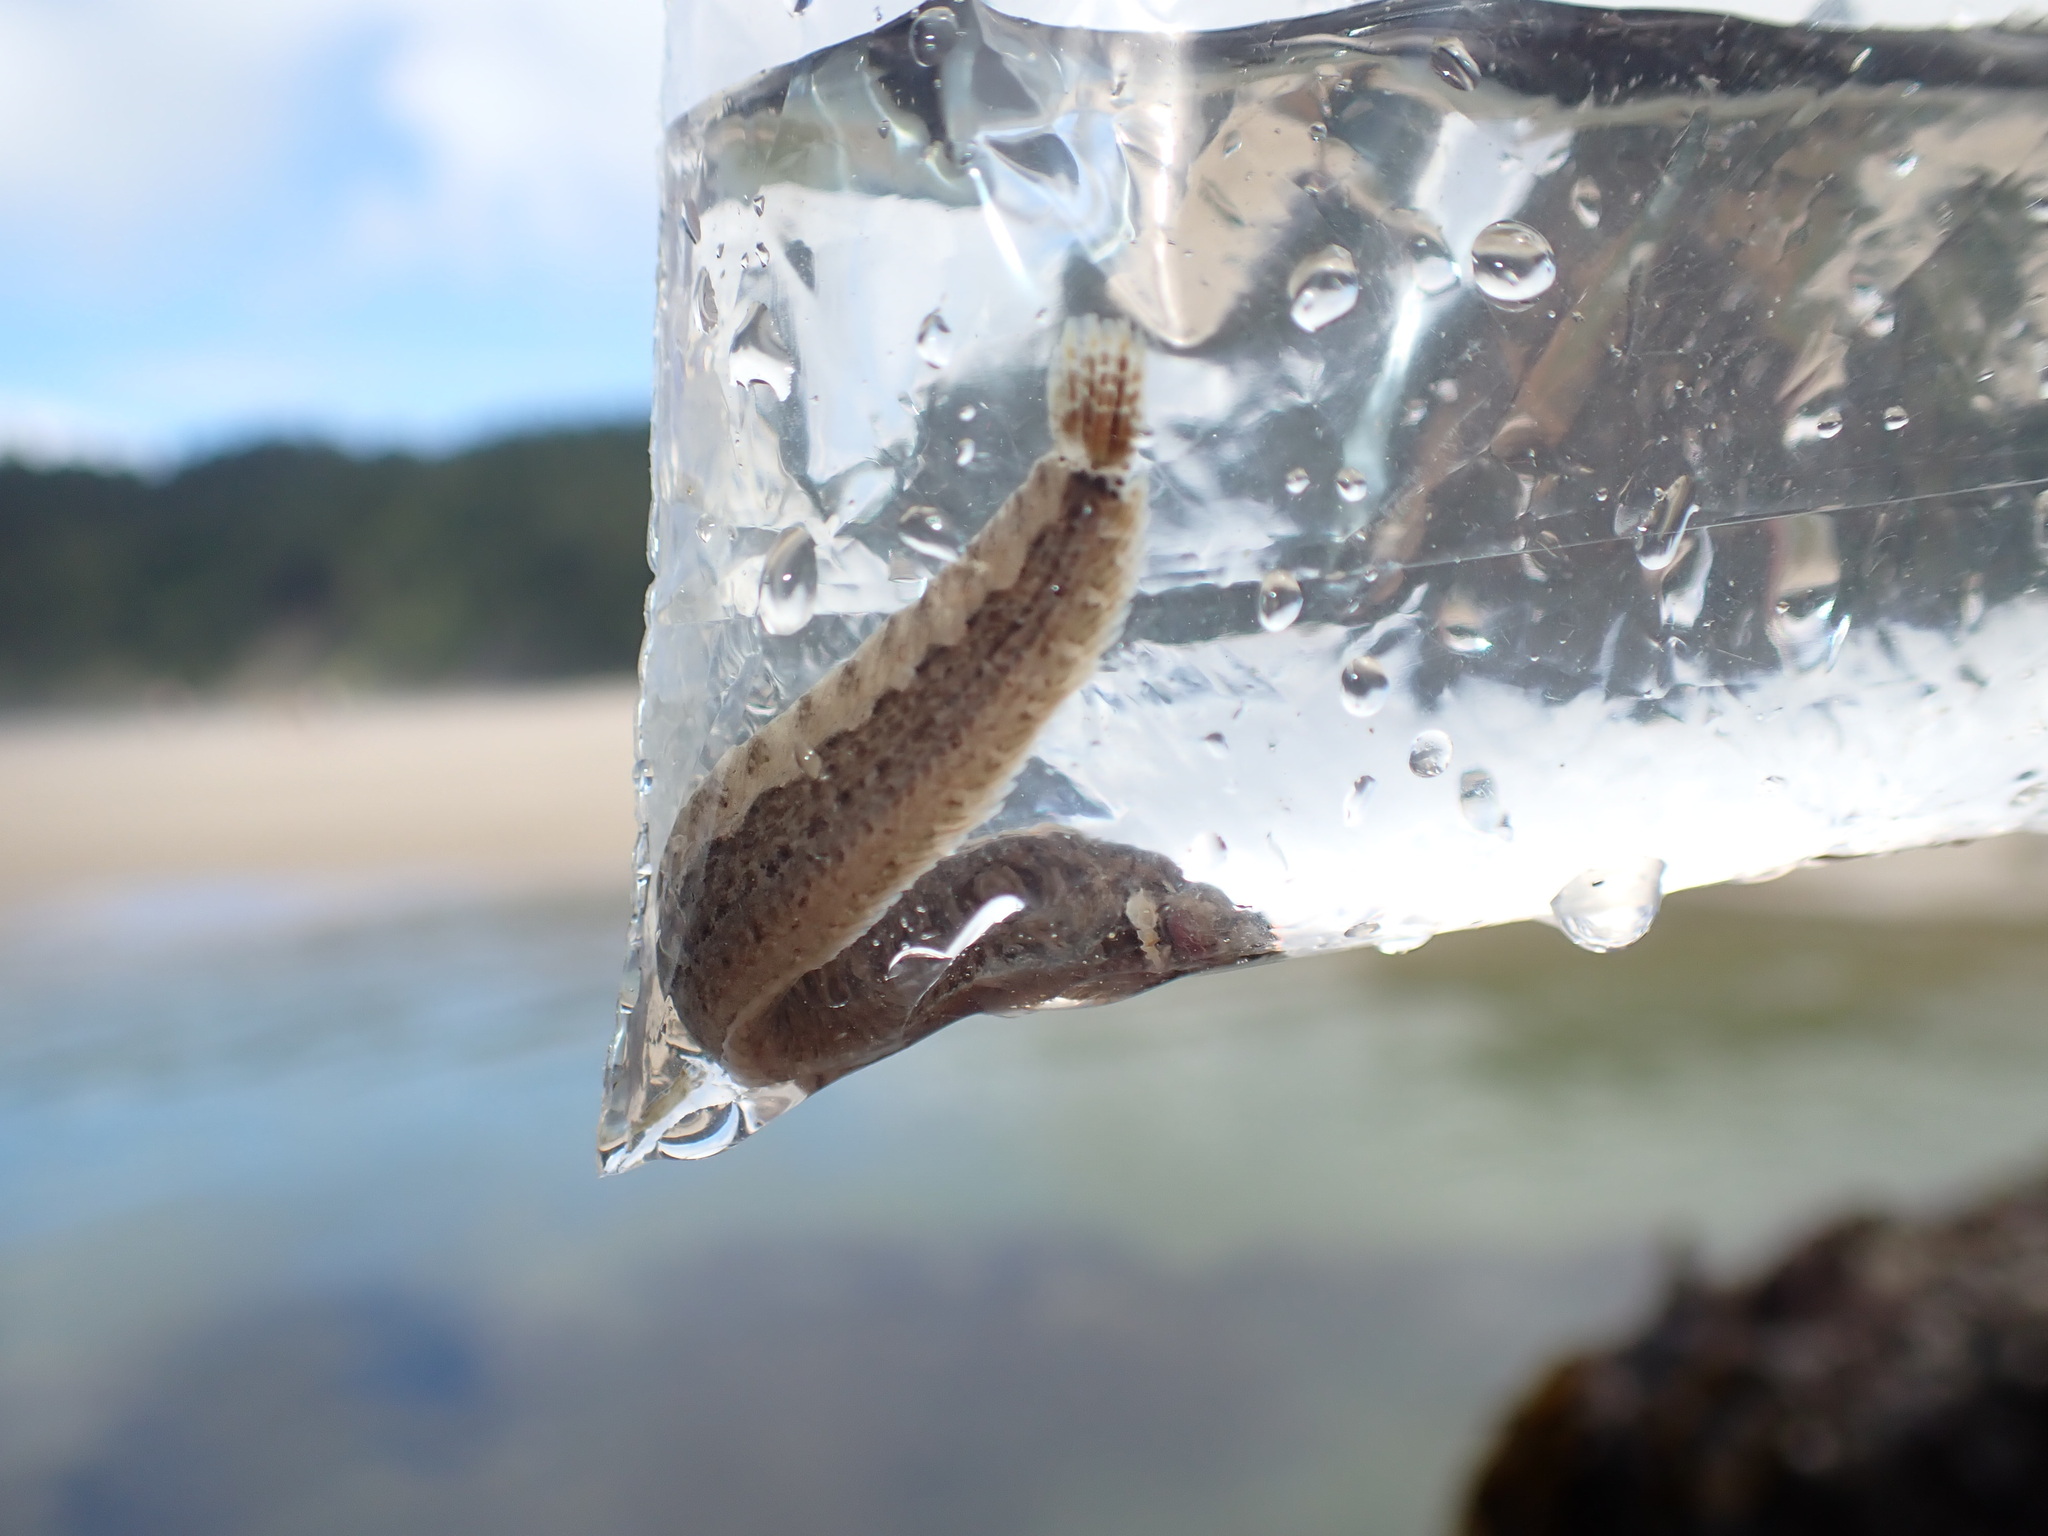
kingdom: Animalia
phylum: Chordata
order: Perciformes
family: Stichaeidae
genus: Anoplarchus
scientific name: Anoplarchus purpurescens
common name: High cockscomb
